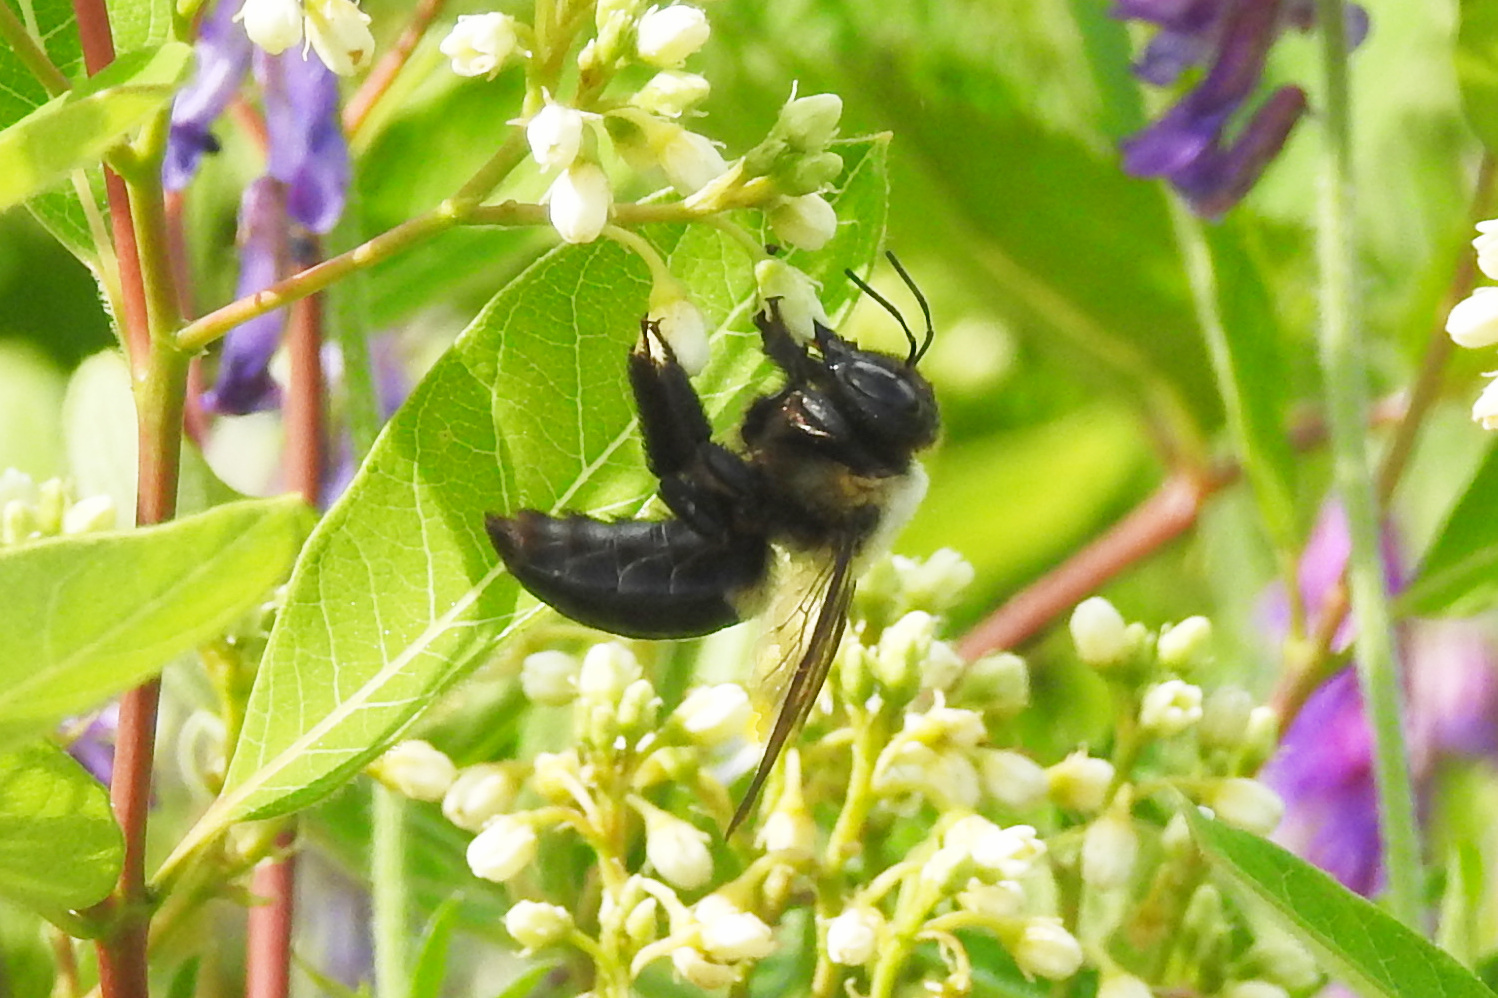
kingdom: Animalia
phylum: Arthropoda
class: Insecta
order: Hymenoptera
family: Apidae
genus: Xylocopa
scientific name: Xylocopa virginica
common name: Carpenter bee
